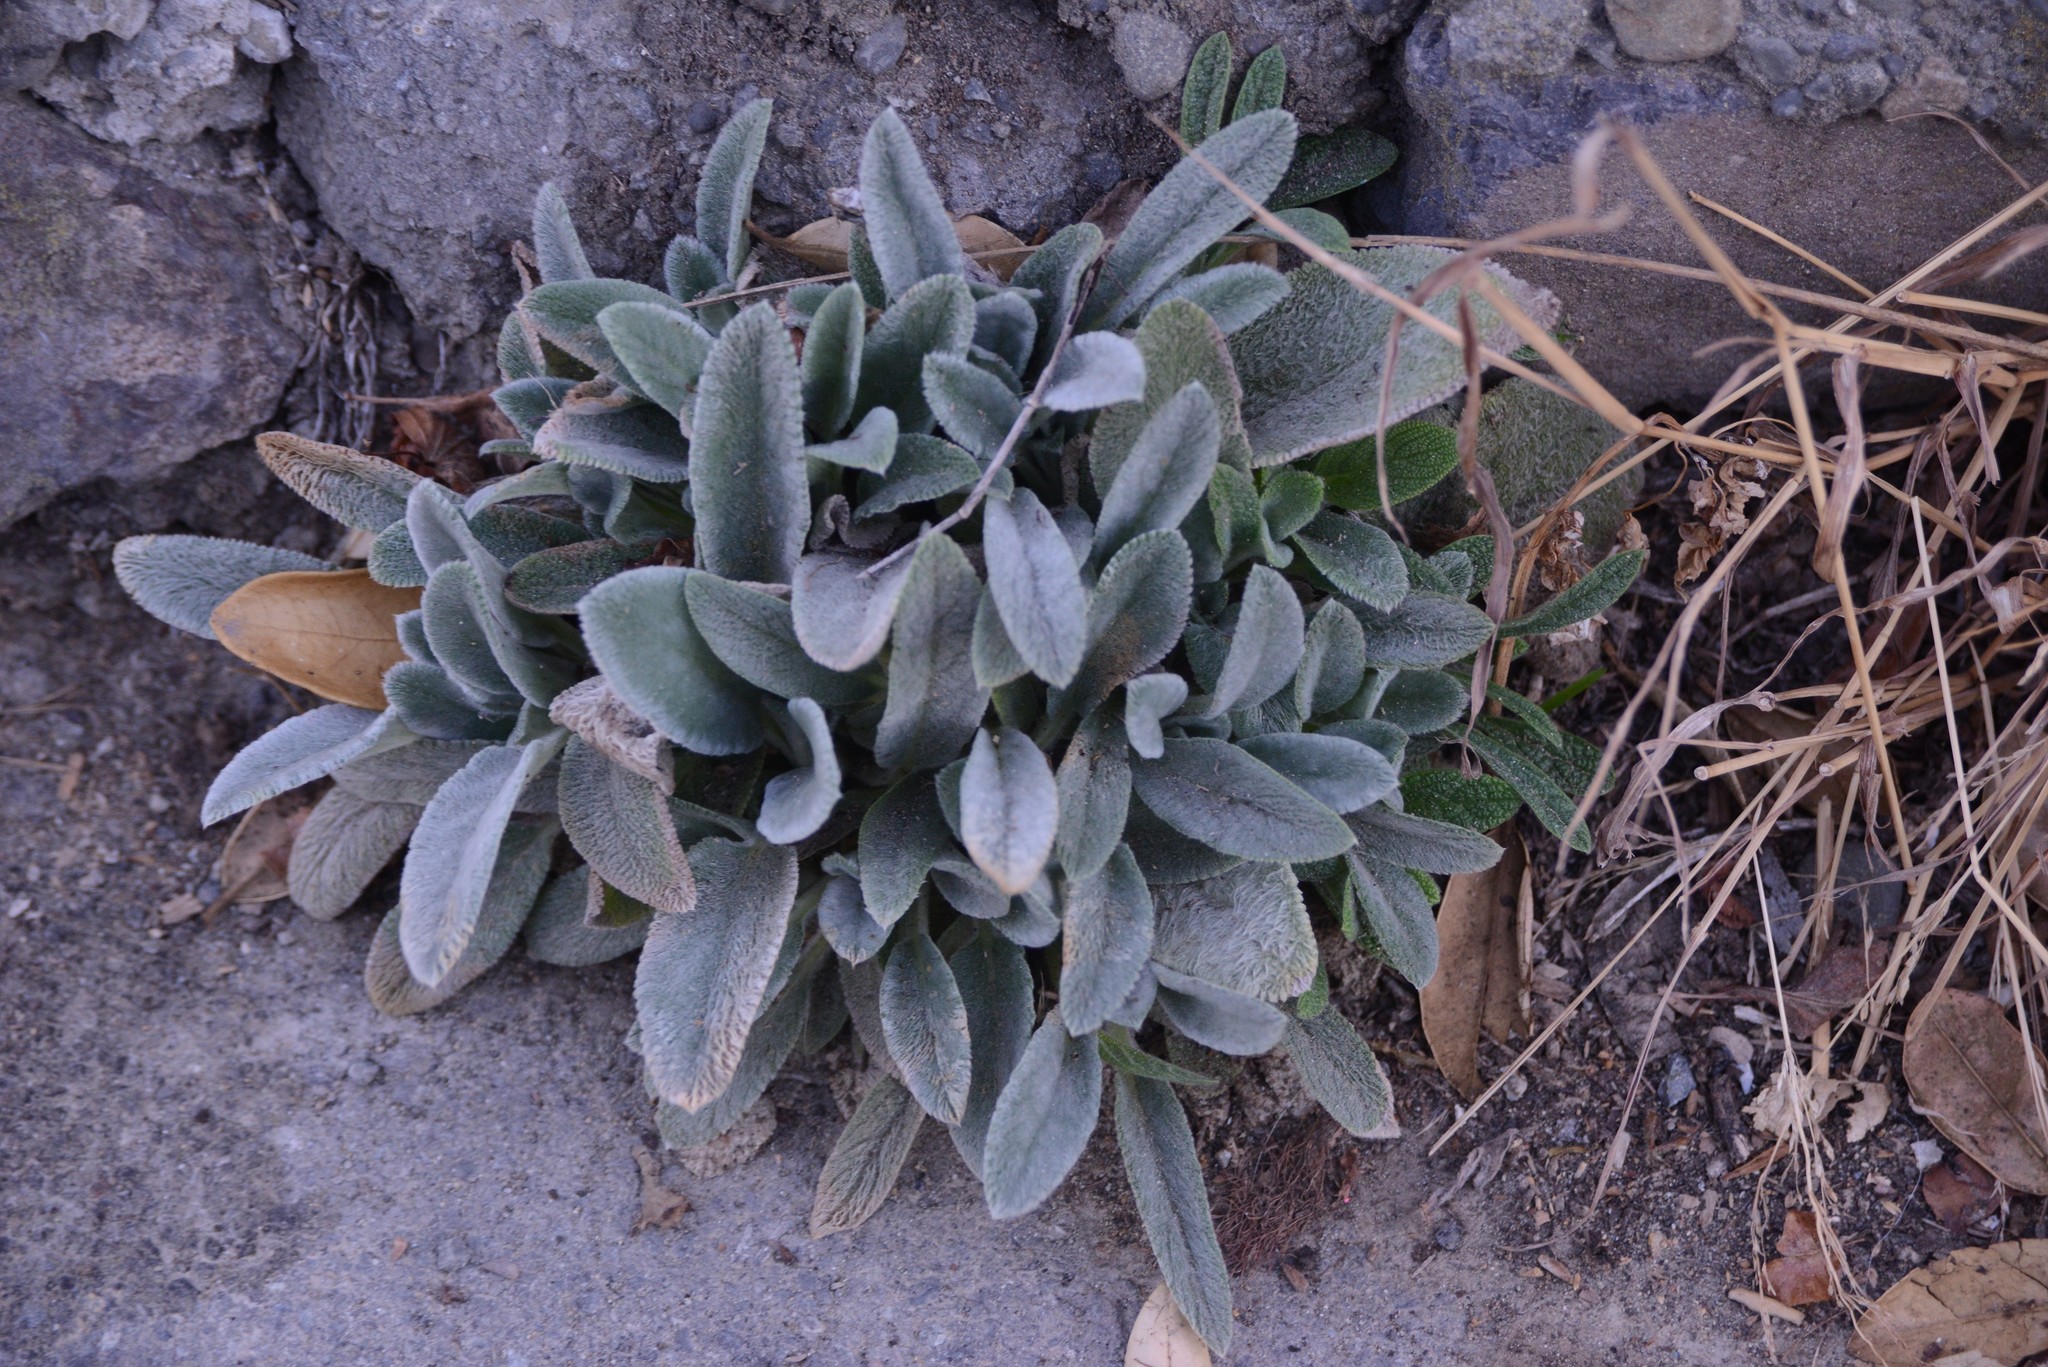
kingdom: Plantae
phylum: Tracheophyta
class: Magnoliopsida
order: Lamiales
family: Lamiaceae
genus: Stachys
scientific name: Stachys byzantina
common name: Lamb's-ear
